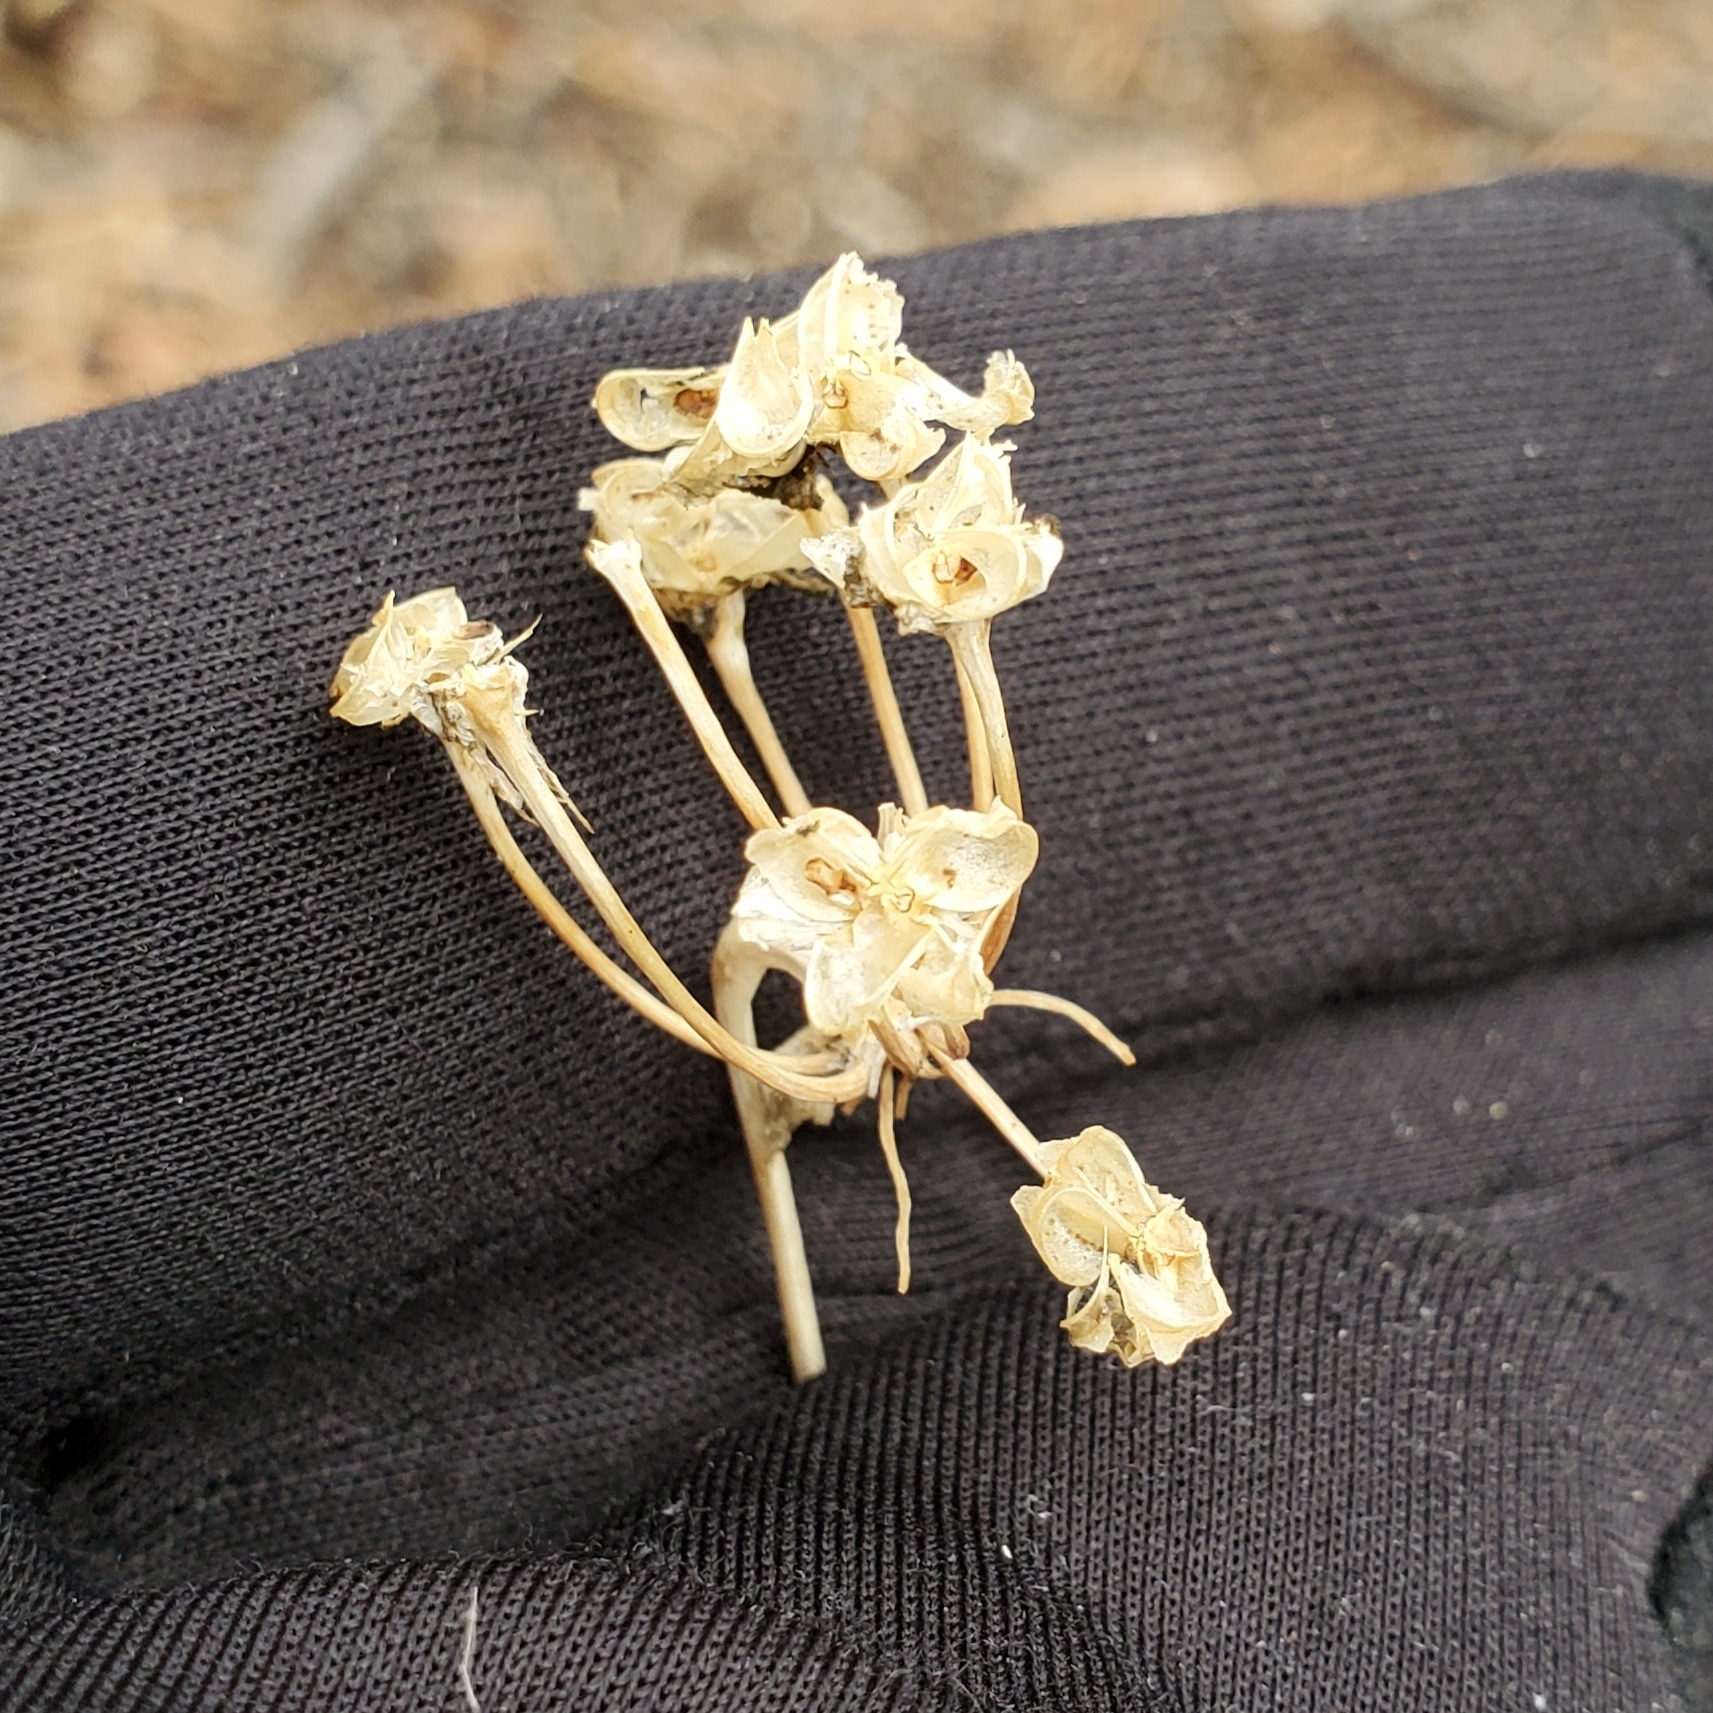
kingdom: Plantae
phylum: Tracheophyta
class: Liliopsida
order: Asparagales
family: Amaryllidaceae
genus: Allium
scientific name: Allium cernuum
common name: Nodding onion
